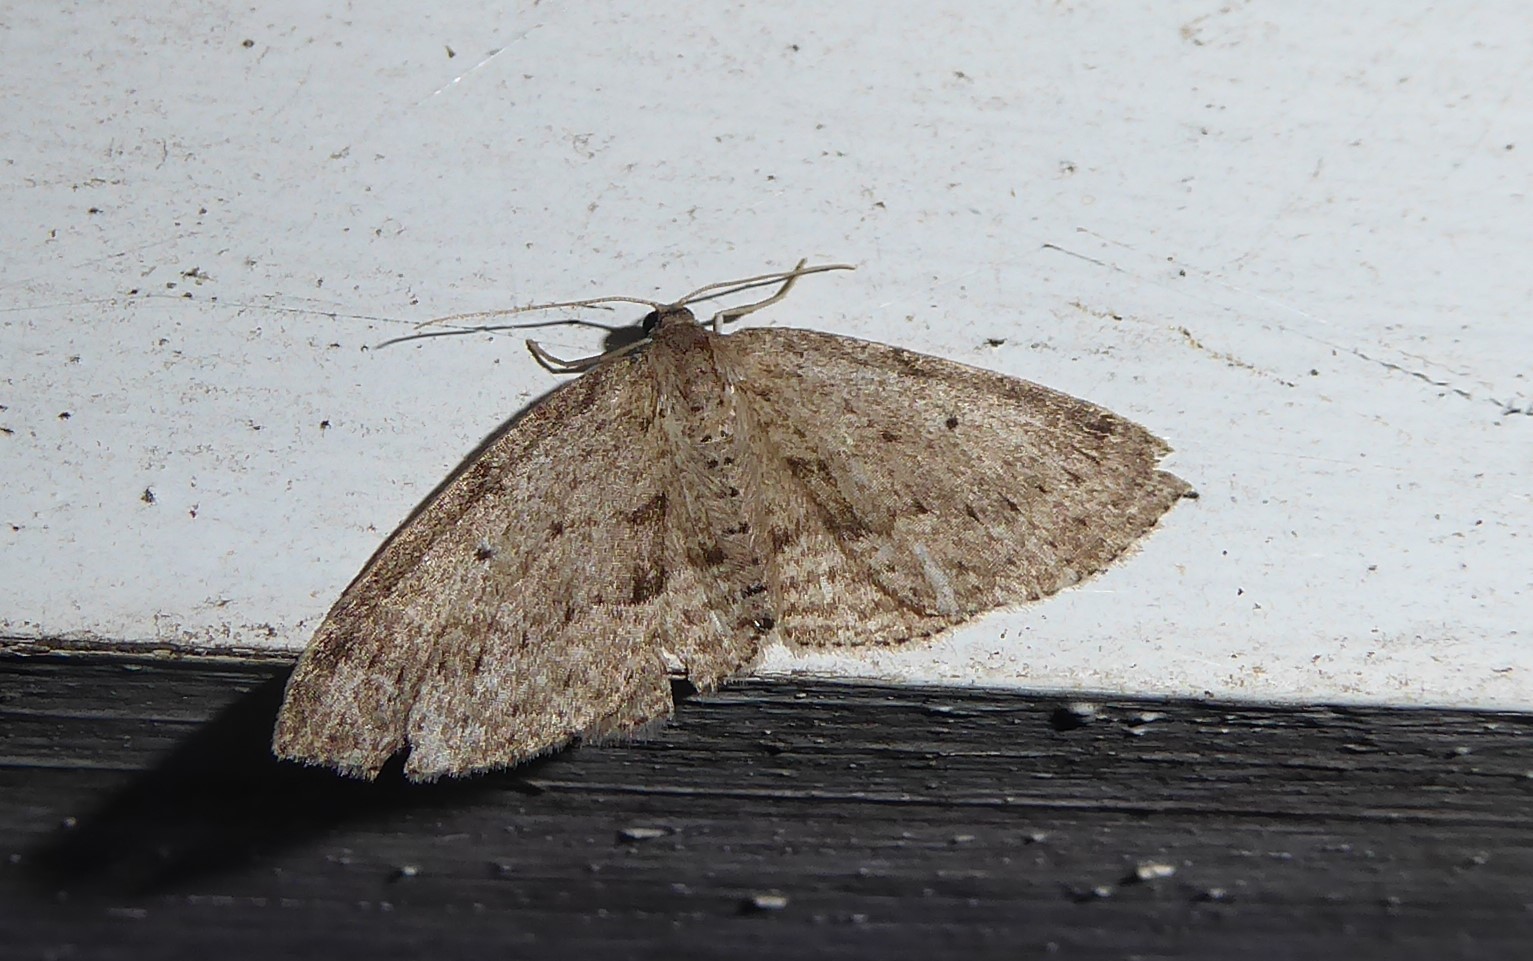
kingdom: Animalia
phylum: Arthropoda
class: Insecta
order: Lepidoptera
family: Geometridae
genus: Poecilasthena
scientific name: Poecilasthena schistaria
